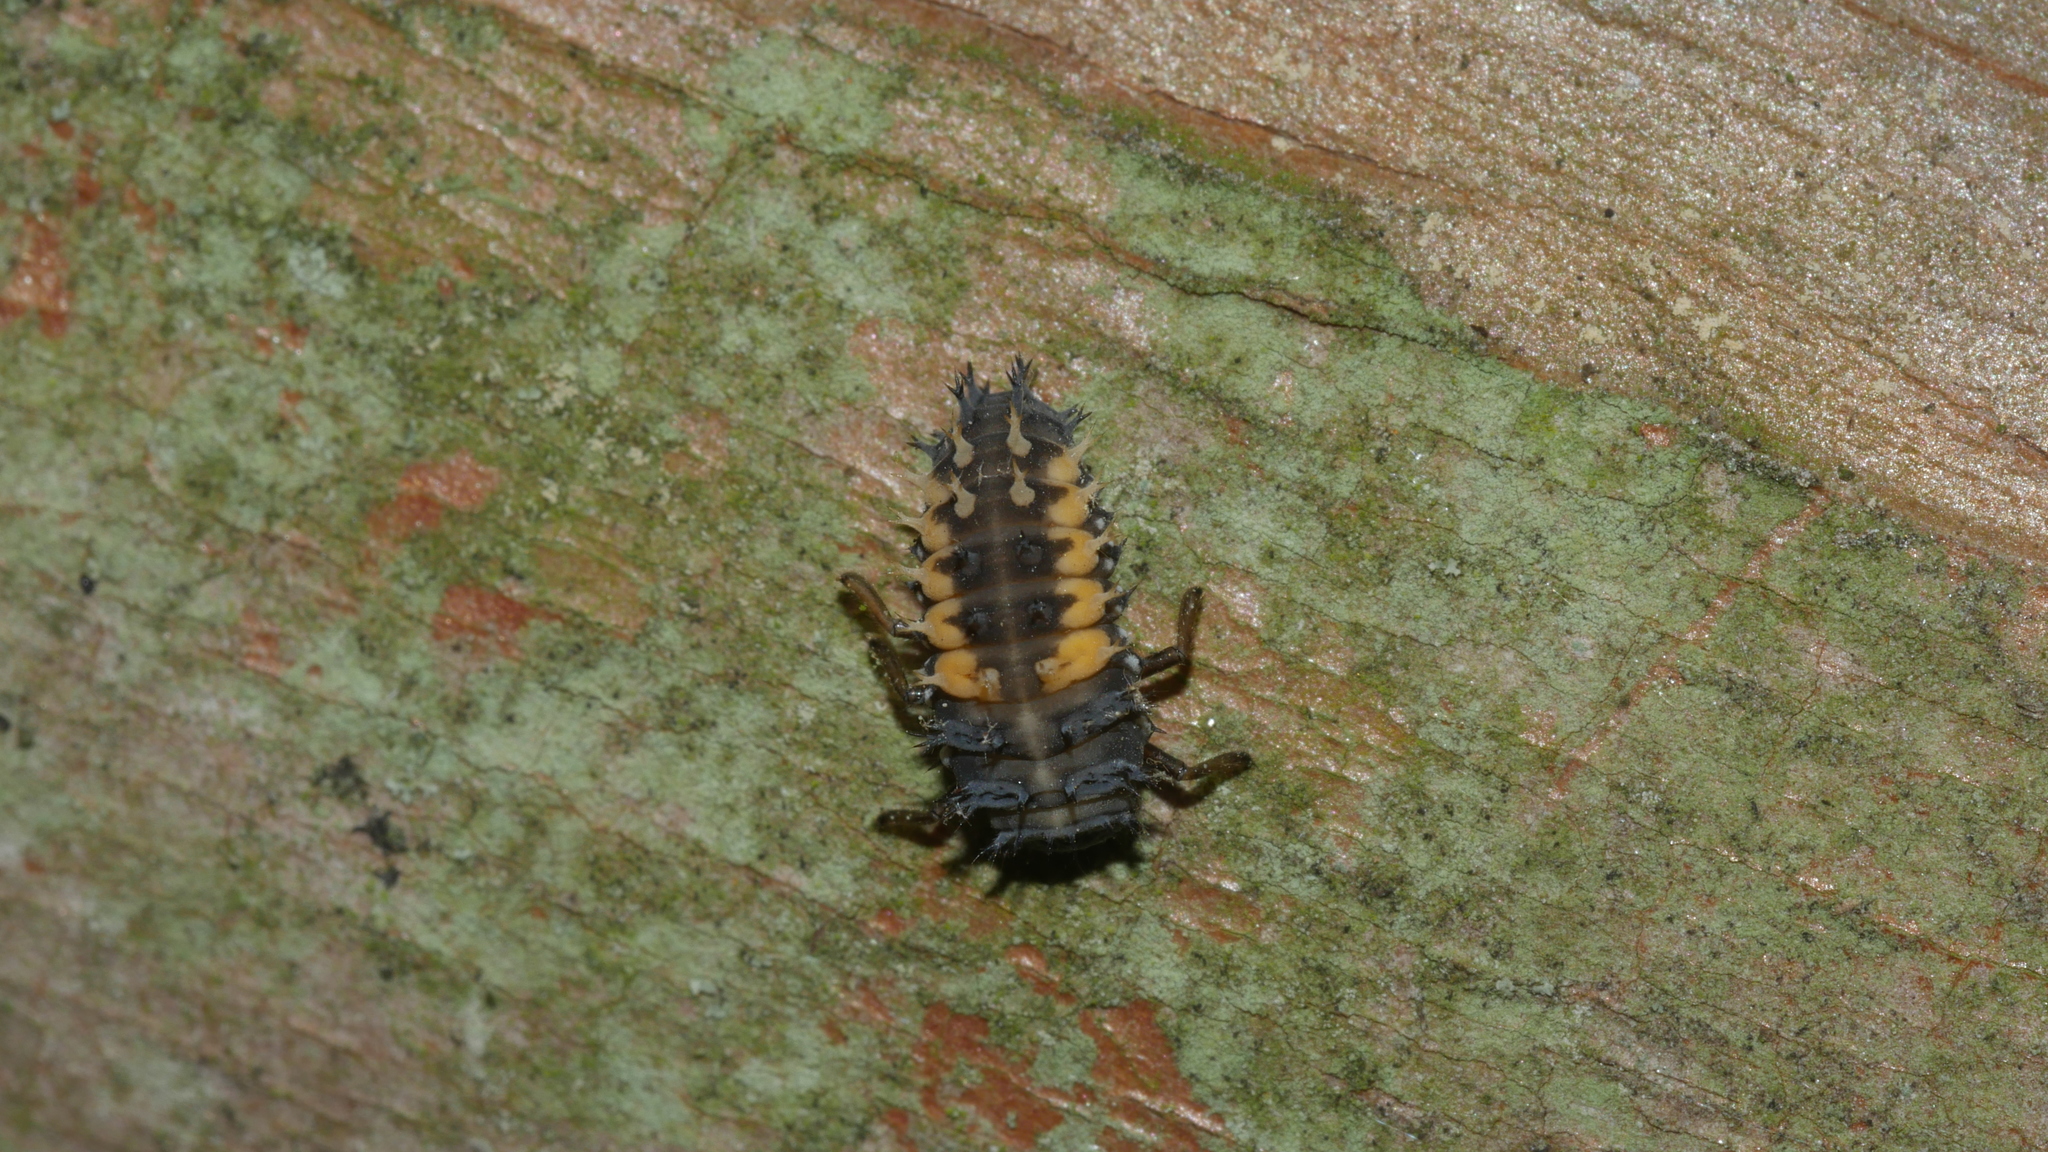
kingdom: Animalia
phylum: Arthropoda
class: Insecta
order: Coleoptera
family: Coccinellidae
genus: Harmonia
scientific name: Harmonia axyridis
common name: Harlequin ladybird
